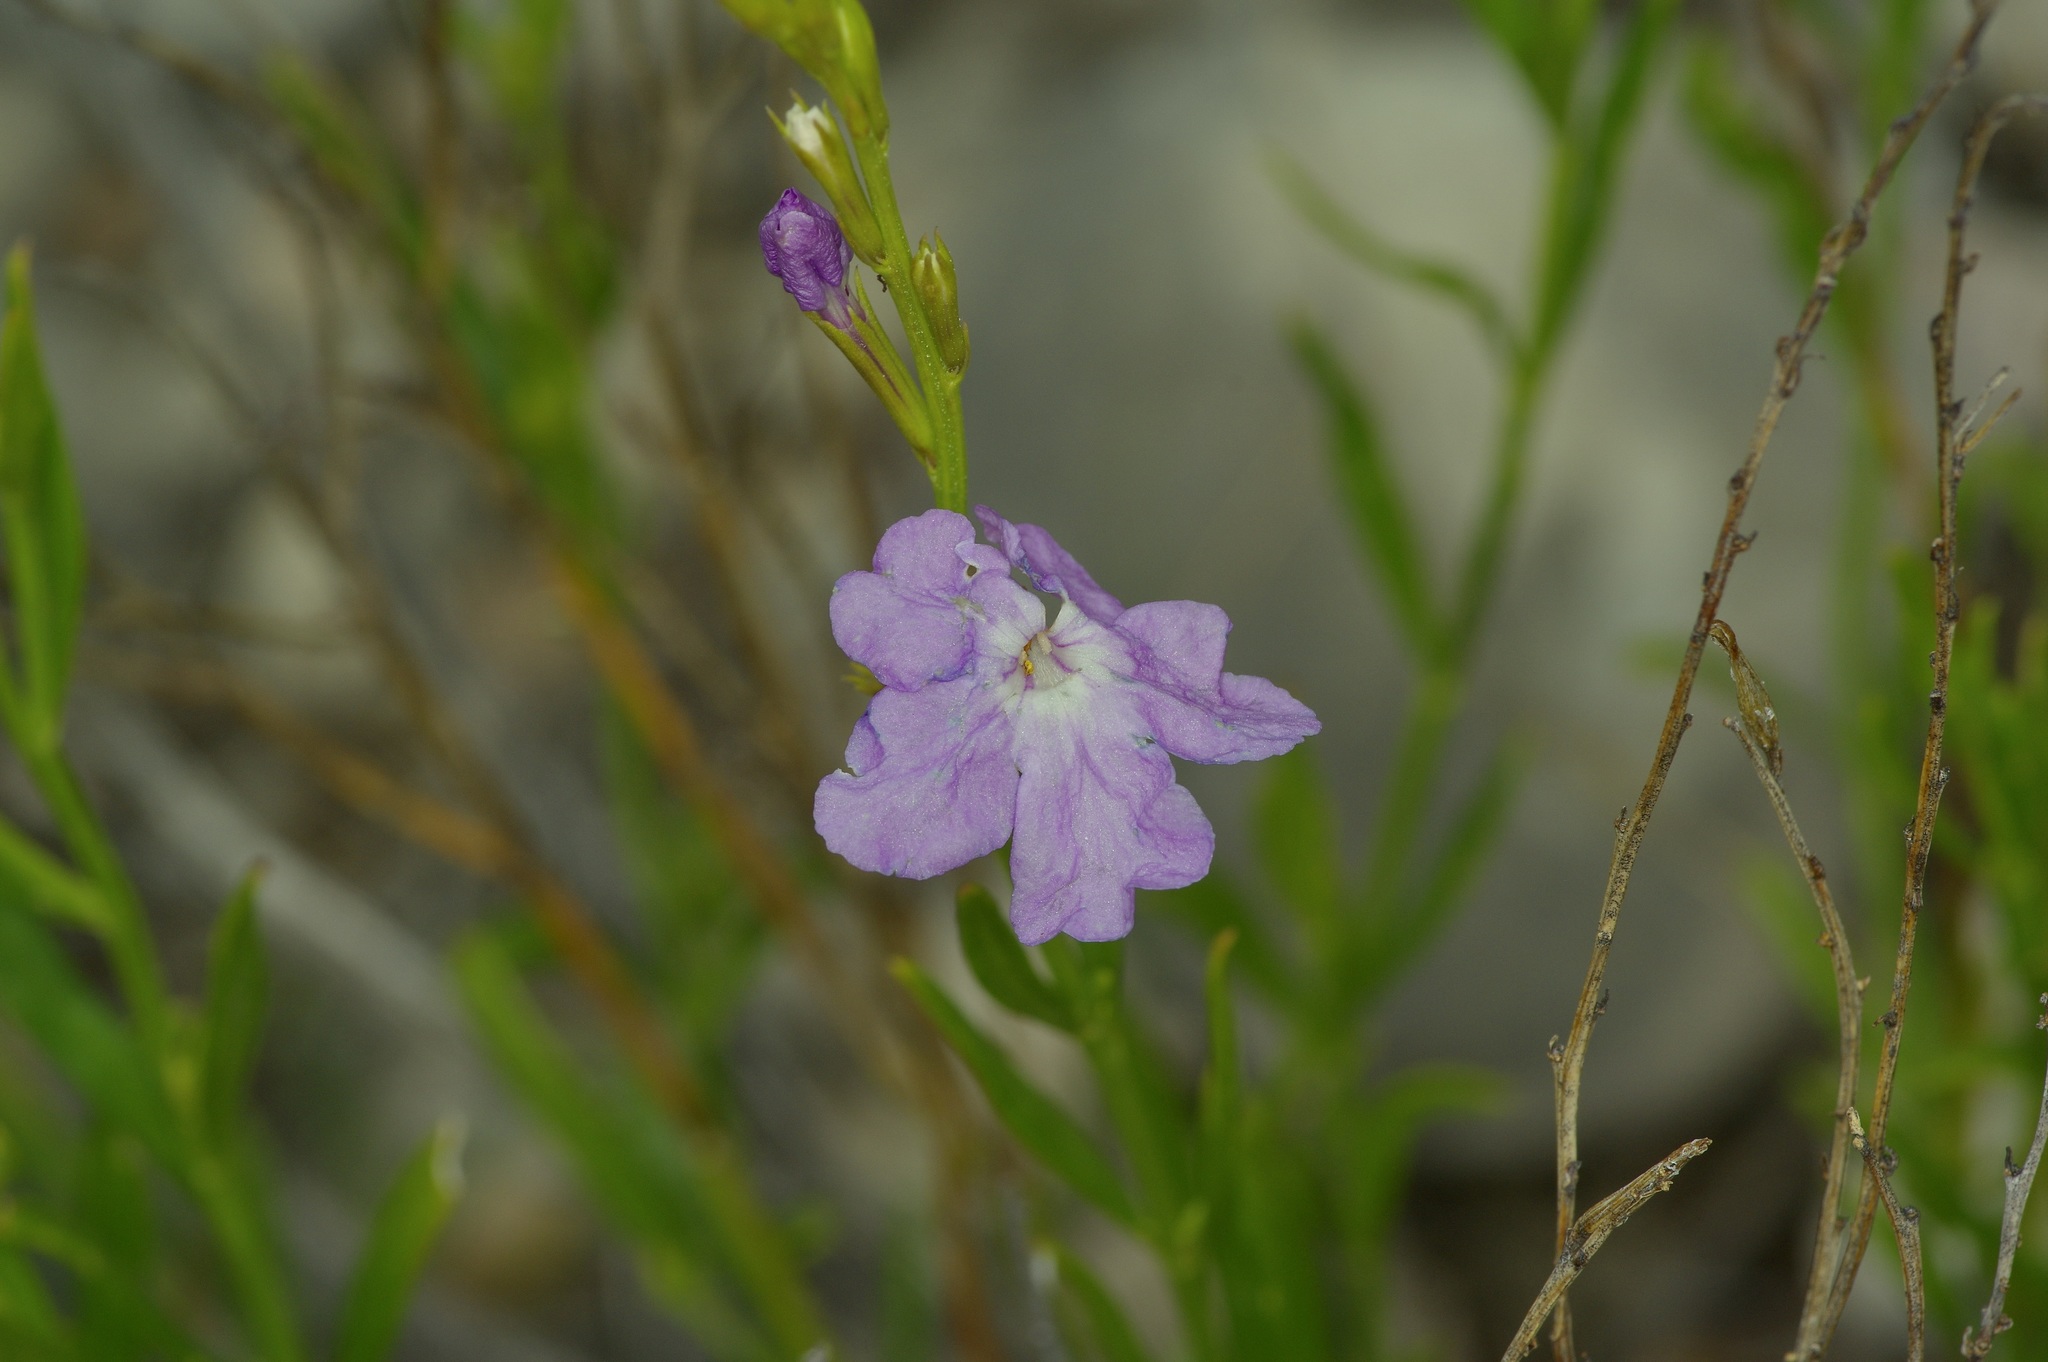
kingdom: Plantae
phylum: Tracheophyta
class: Magnoliopsida
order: Lamiales
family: Verbenaceae
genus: Bouchea
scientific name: Bouchea linifolia
